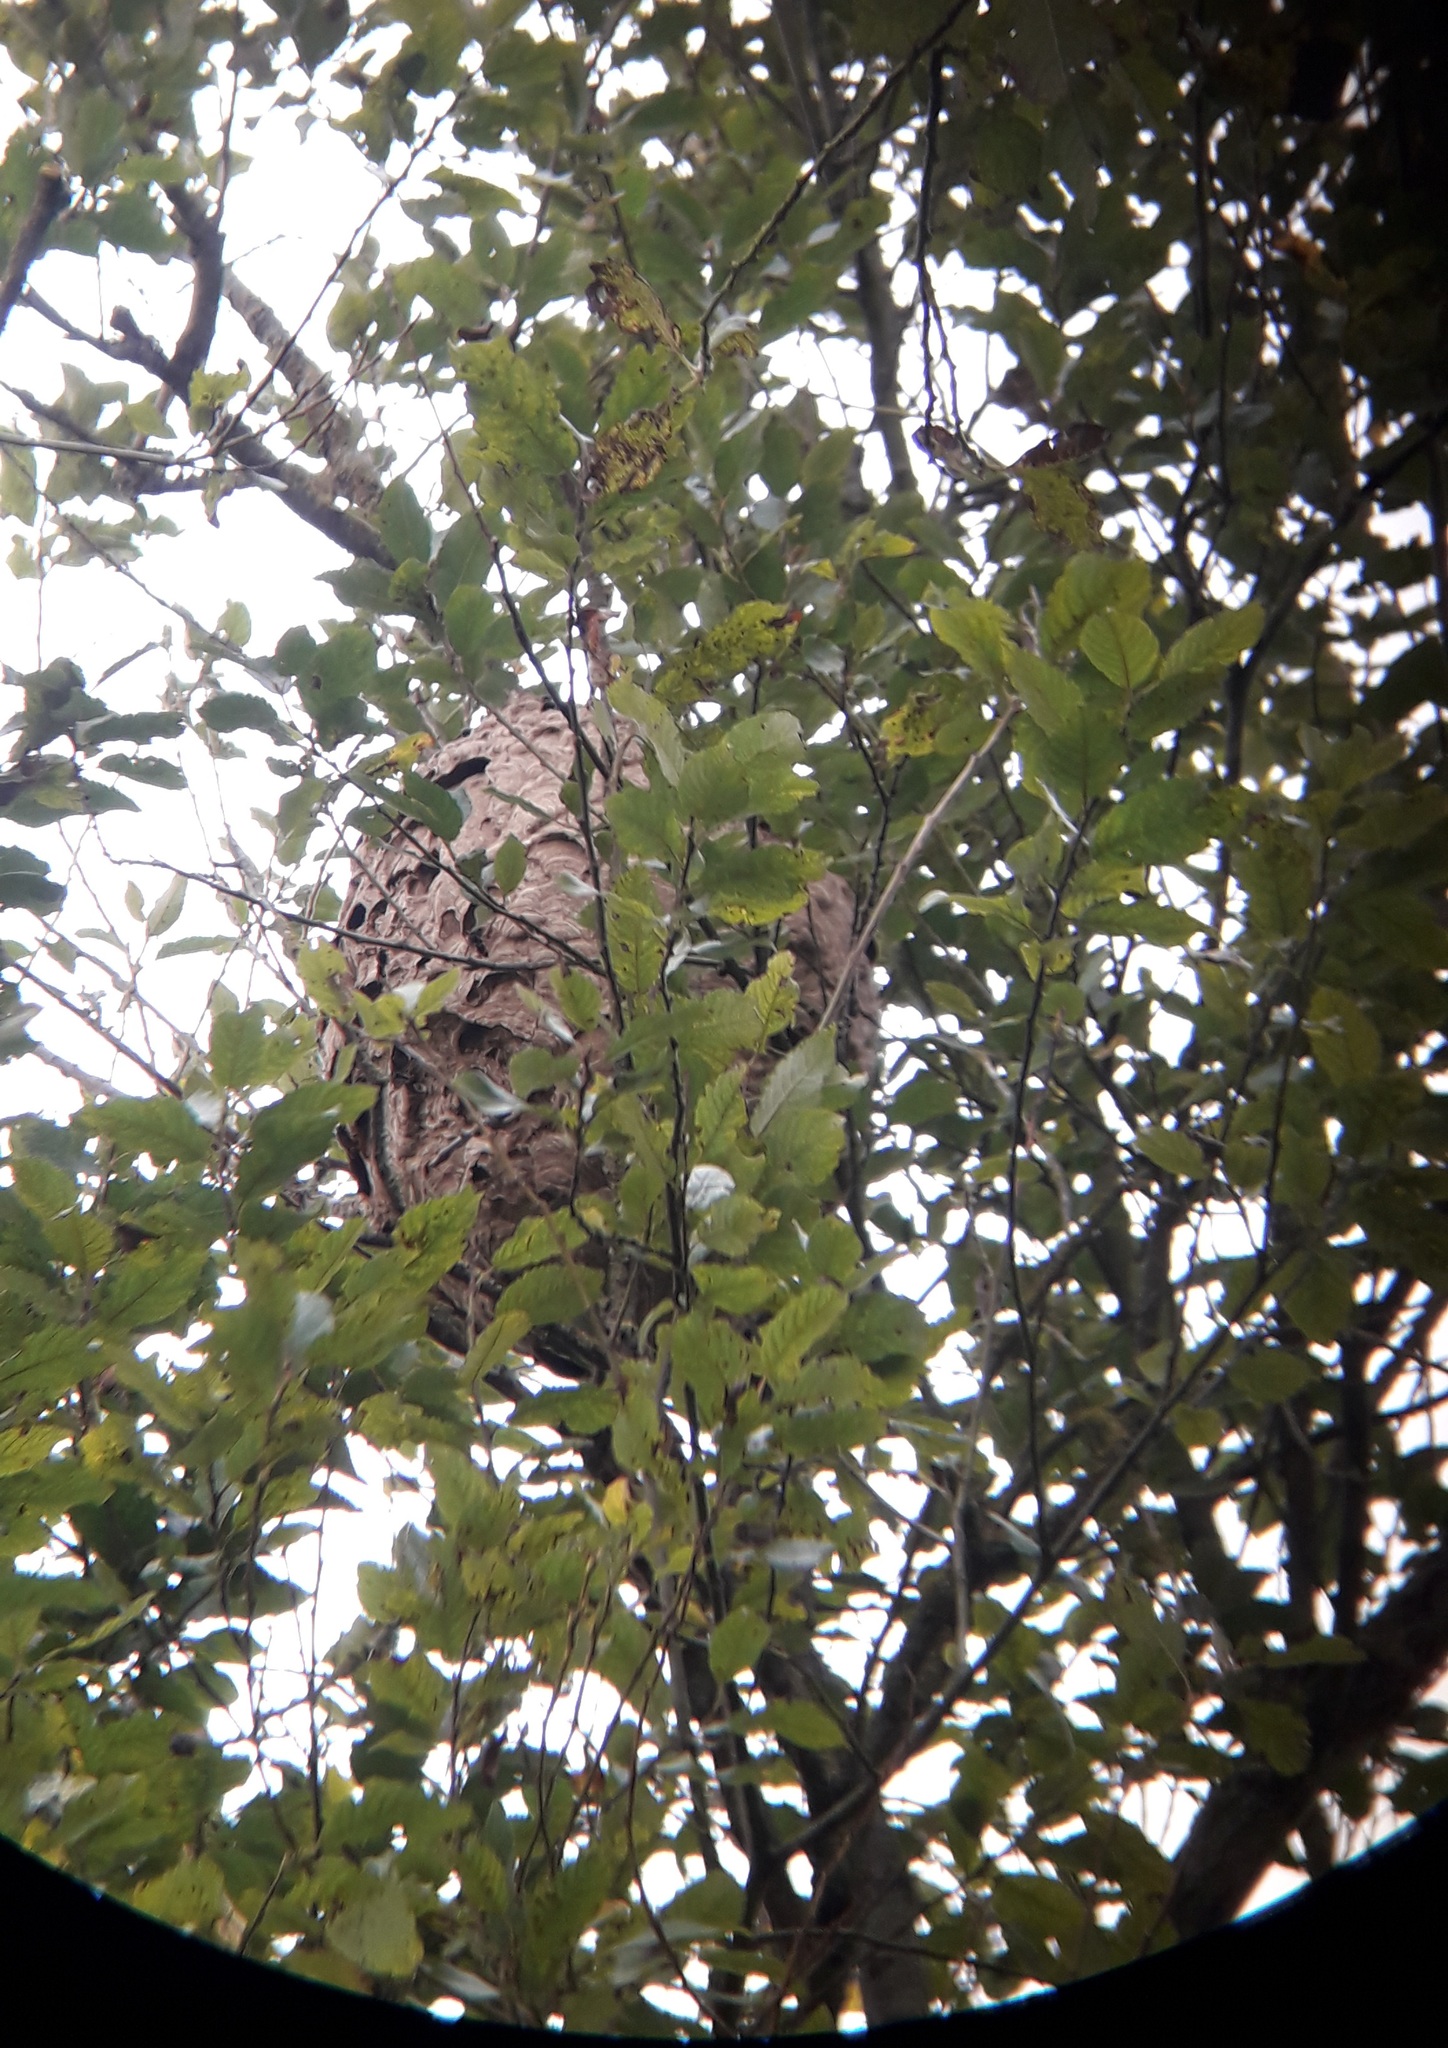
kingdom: Animalia
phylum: Arthropoda
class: Insecta
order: Hymenoptera
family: Vespidae
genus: Vespa
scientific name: Vespa velutina
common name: Asian hornet
